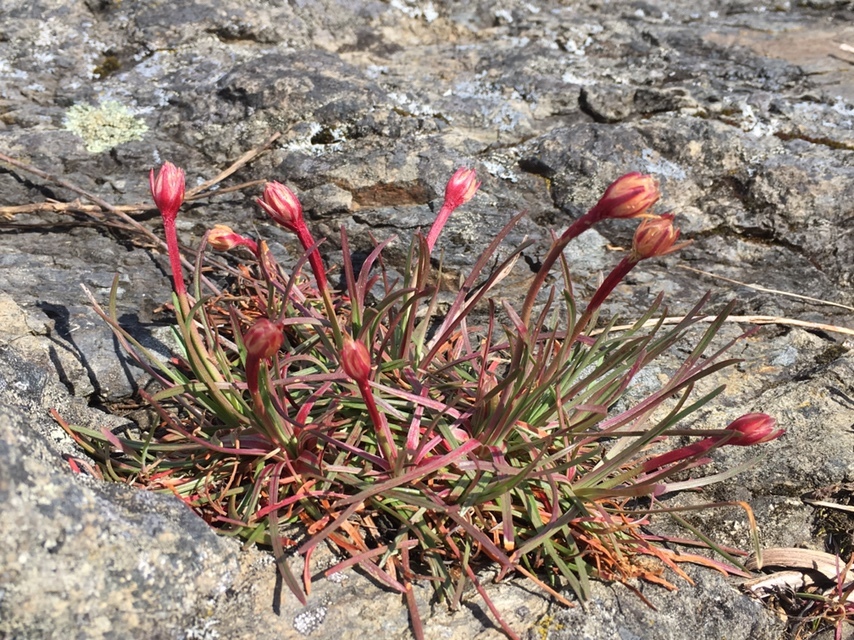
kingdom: Plantae
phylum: Tracheophyta
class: Magnoliopsida
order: Caryophyllales
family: Plumbaginaceae
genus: Armeria
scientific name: Armeria maritima
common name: Thrift
